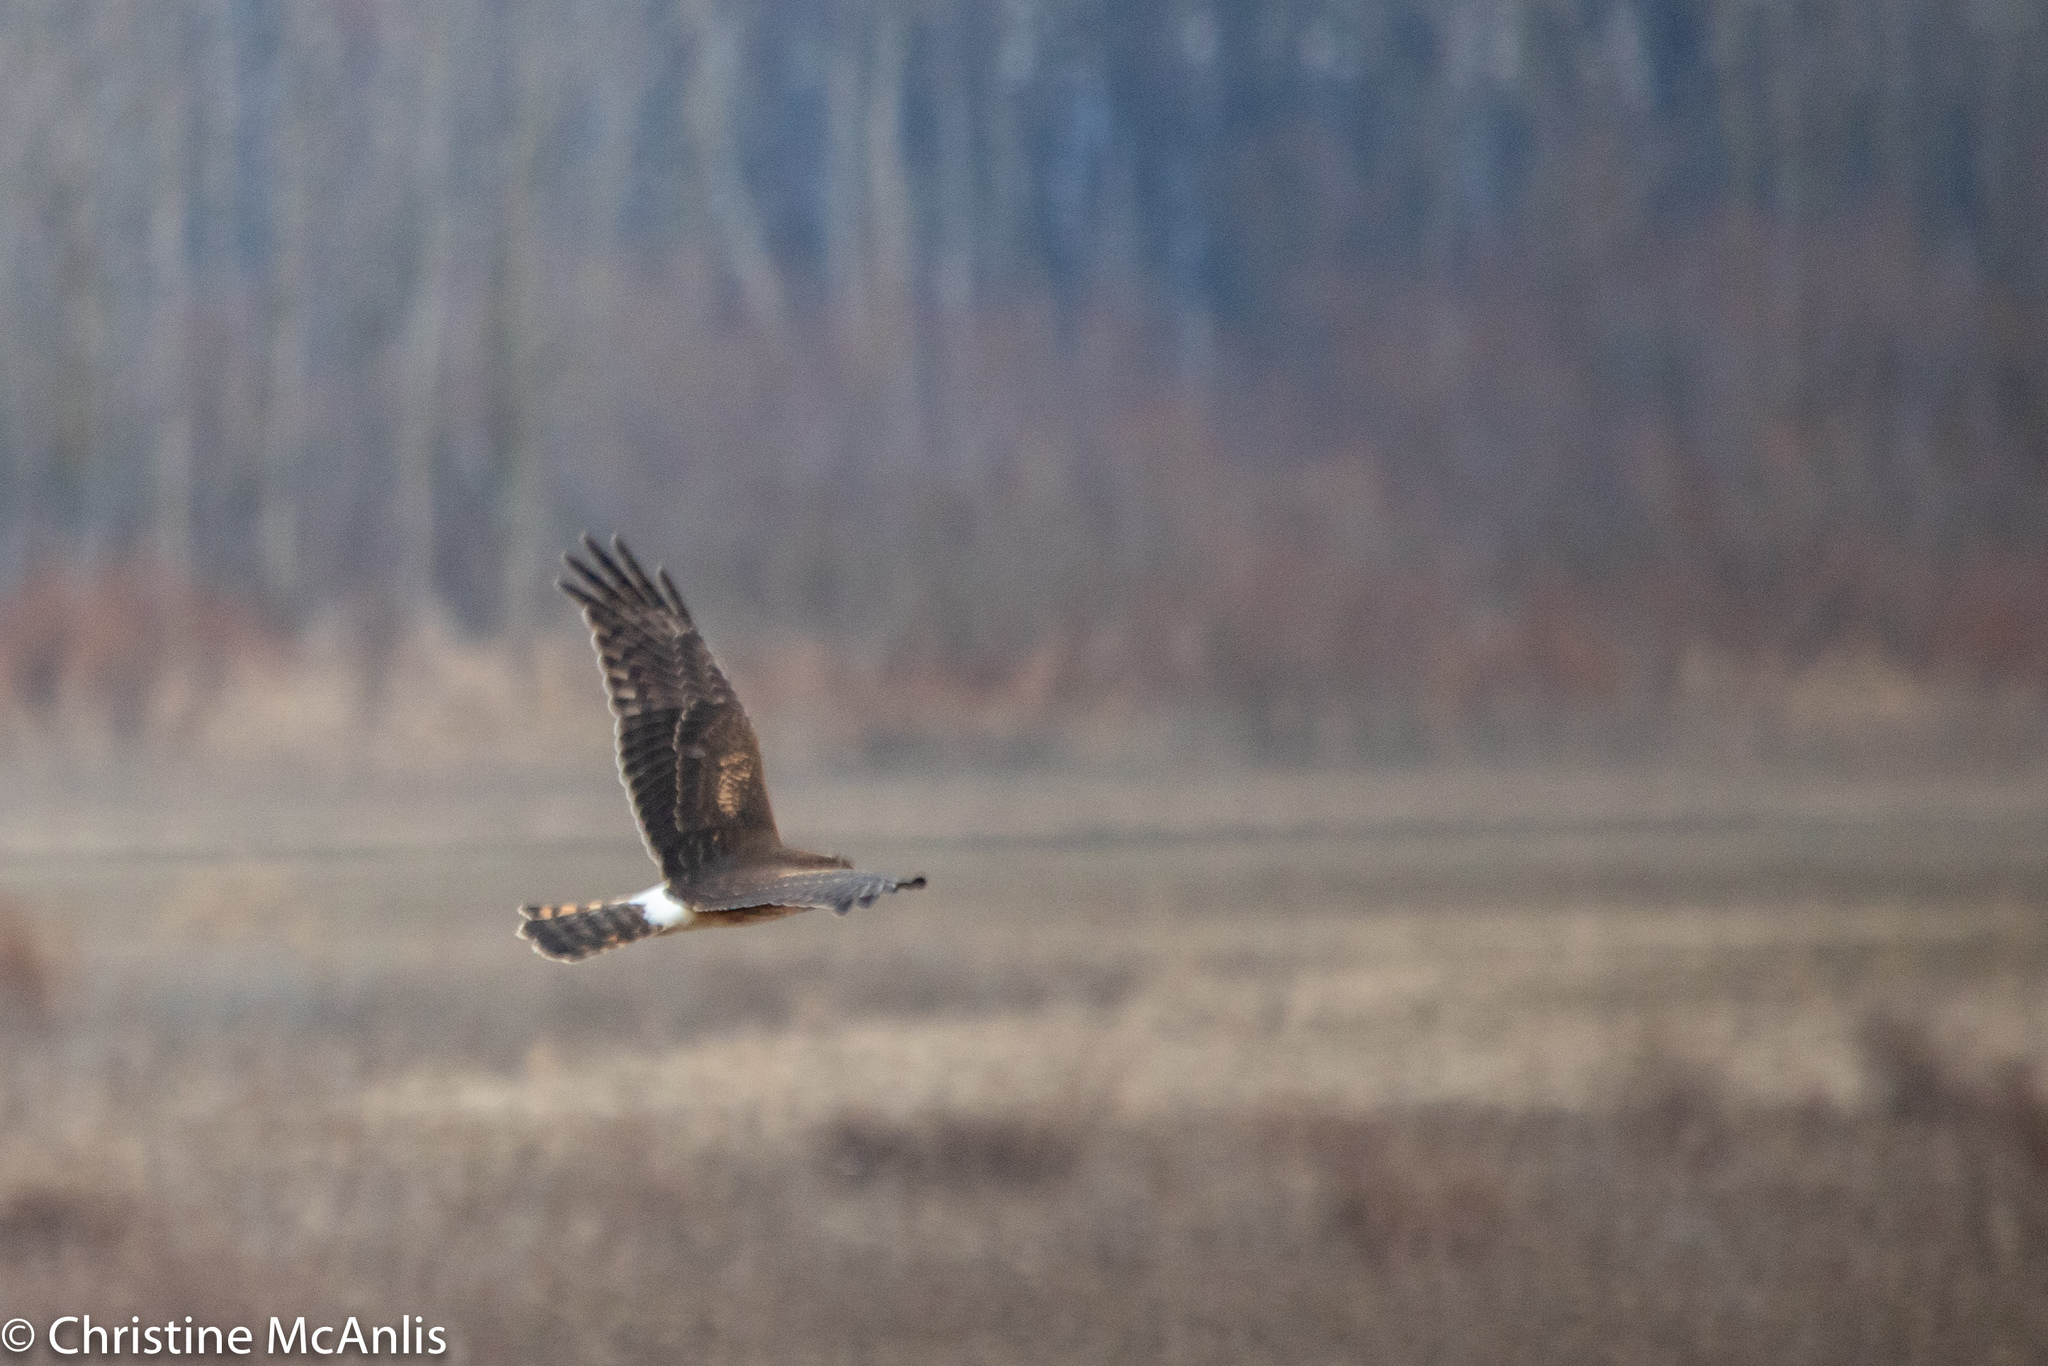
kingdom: Animalia
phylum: Chordata
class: Aves
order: Accipitriformes
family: Accipitridae
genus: Circus
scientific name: Circus cyaneus
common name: Hen harrier
